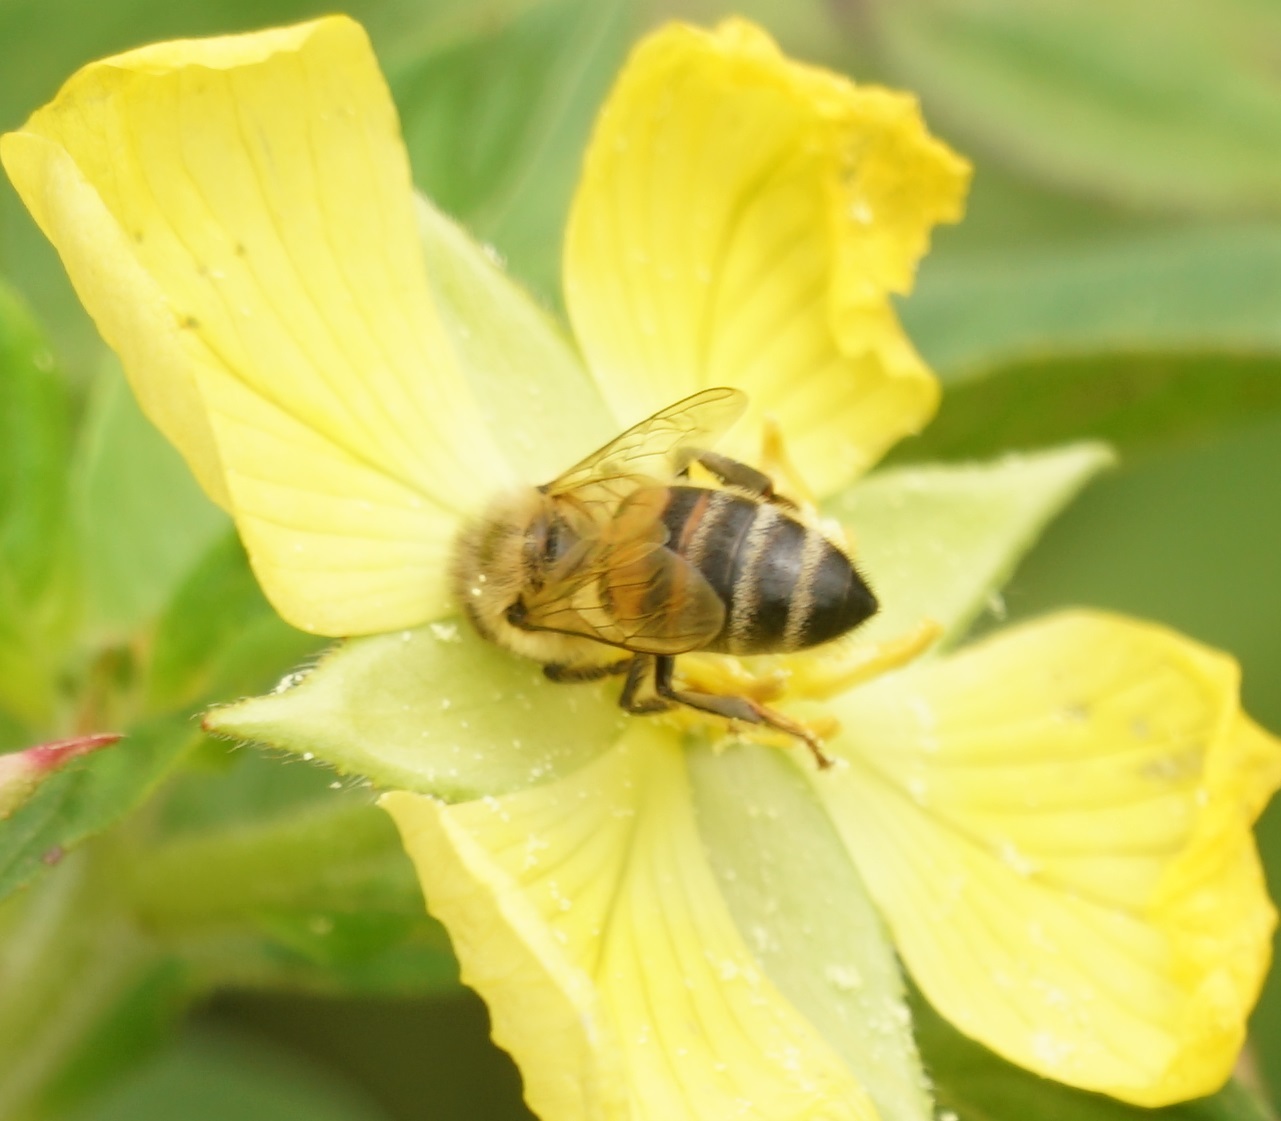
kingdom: Animalia
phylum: Arthropoda
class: Insecta
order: Hymenoptera
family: Apidae
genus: Apis
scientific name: Apis mellifera
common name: Honey bee
